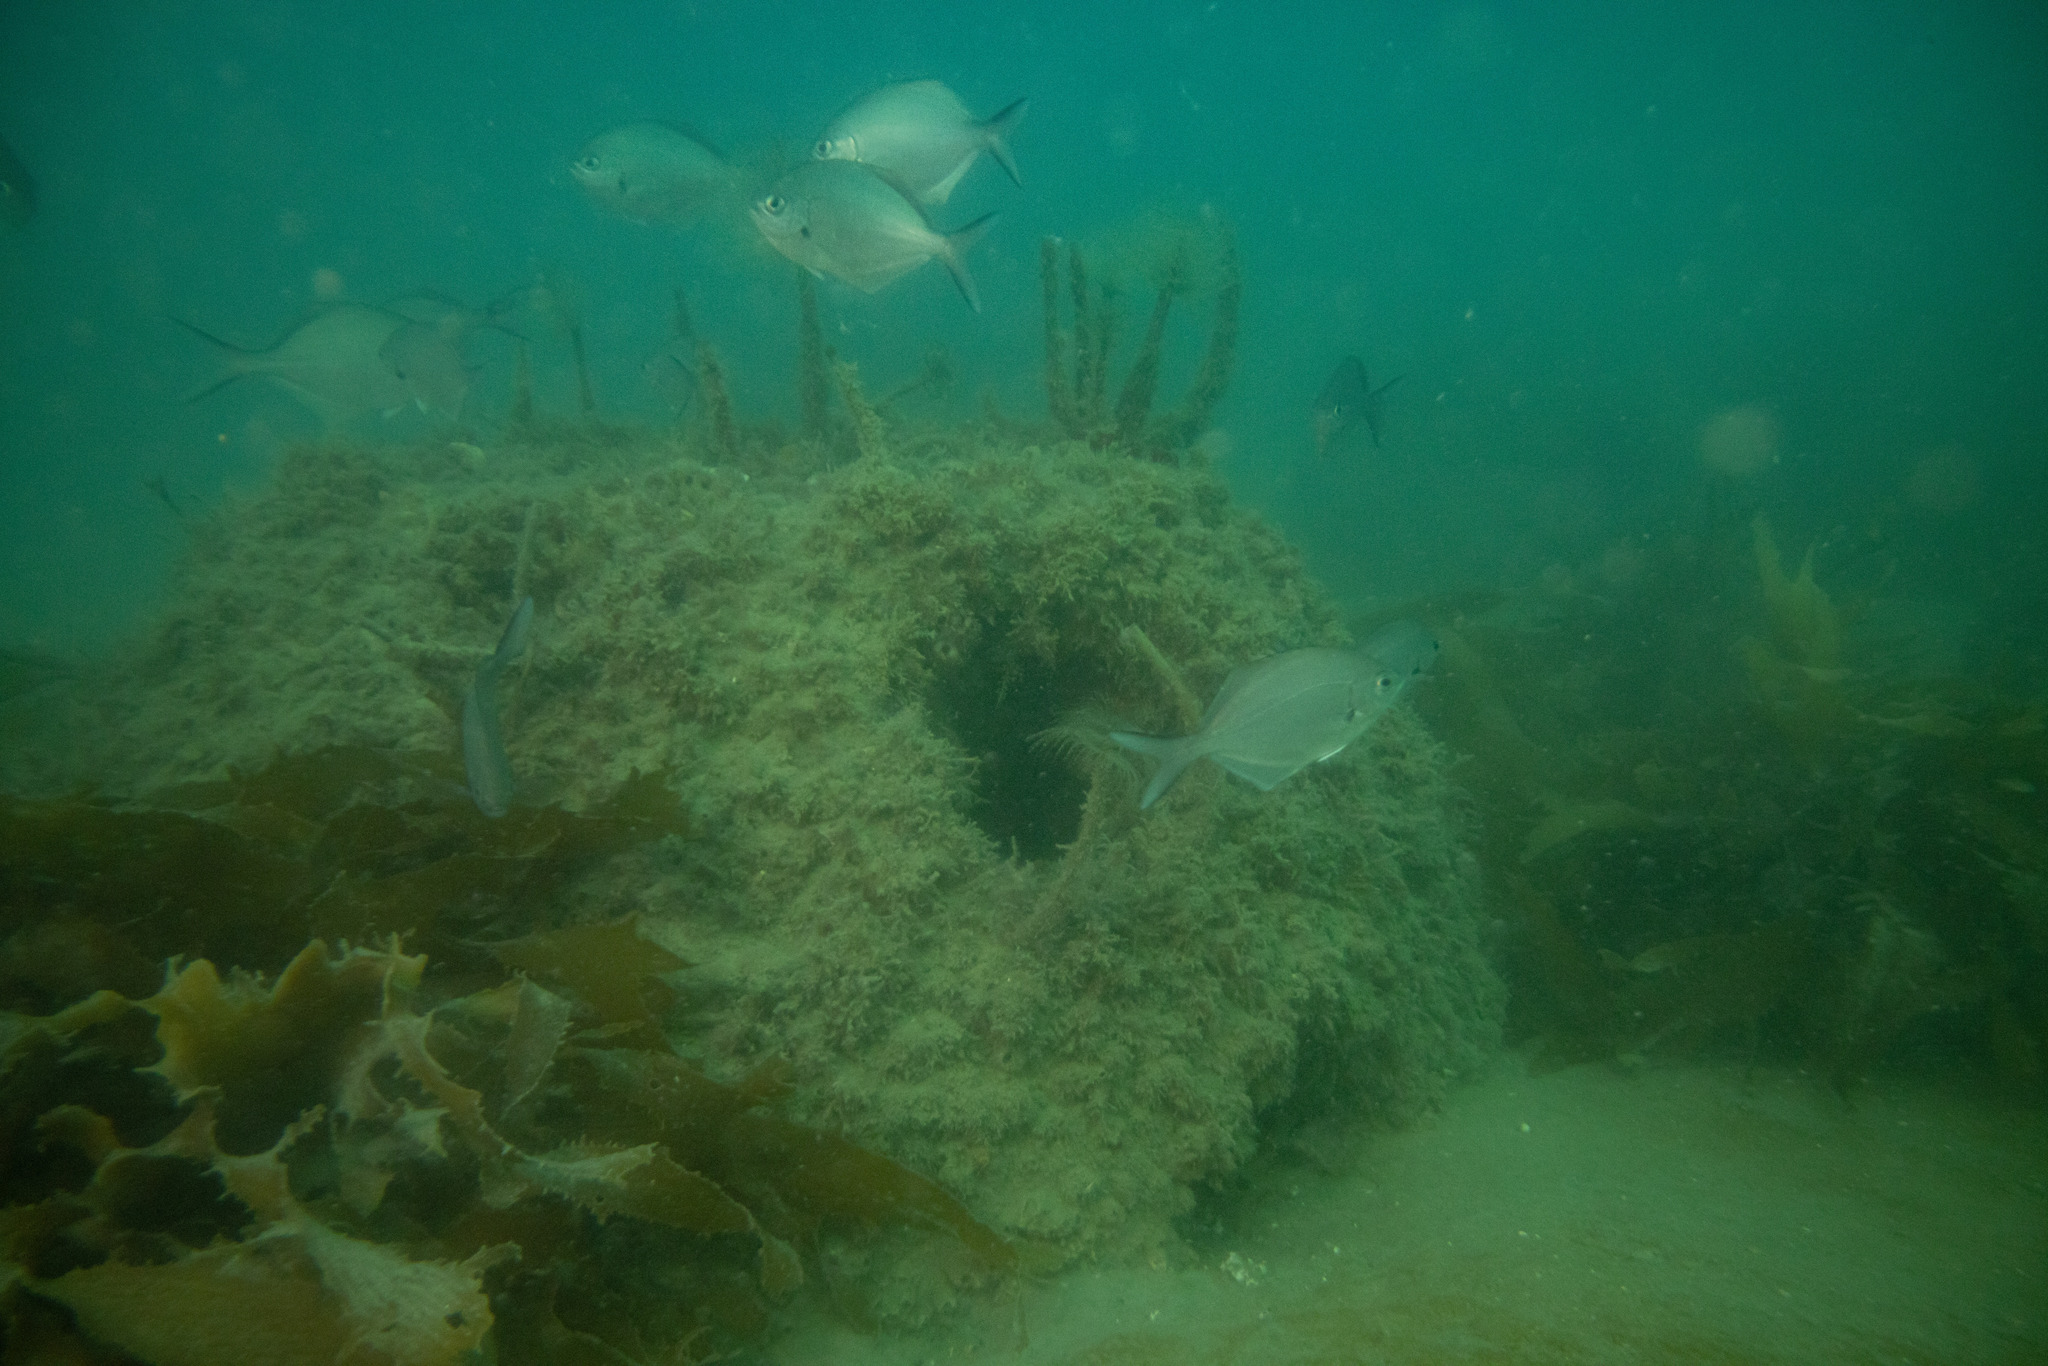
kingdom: Chromista
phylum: Ochrophyta
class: Phaeophyceae
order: Laminariales
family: Lessoniaceae
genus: Ecklonia
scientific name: Ecklonia radiata
